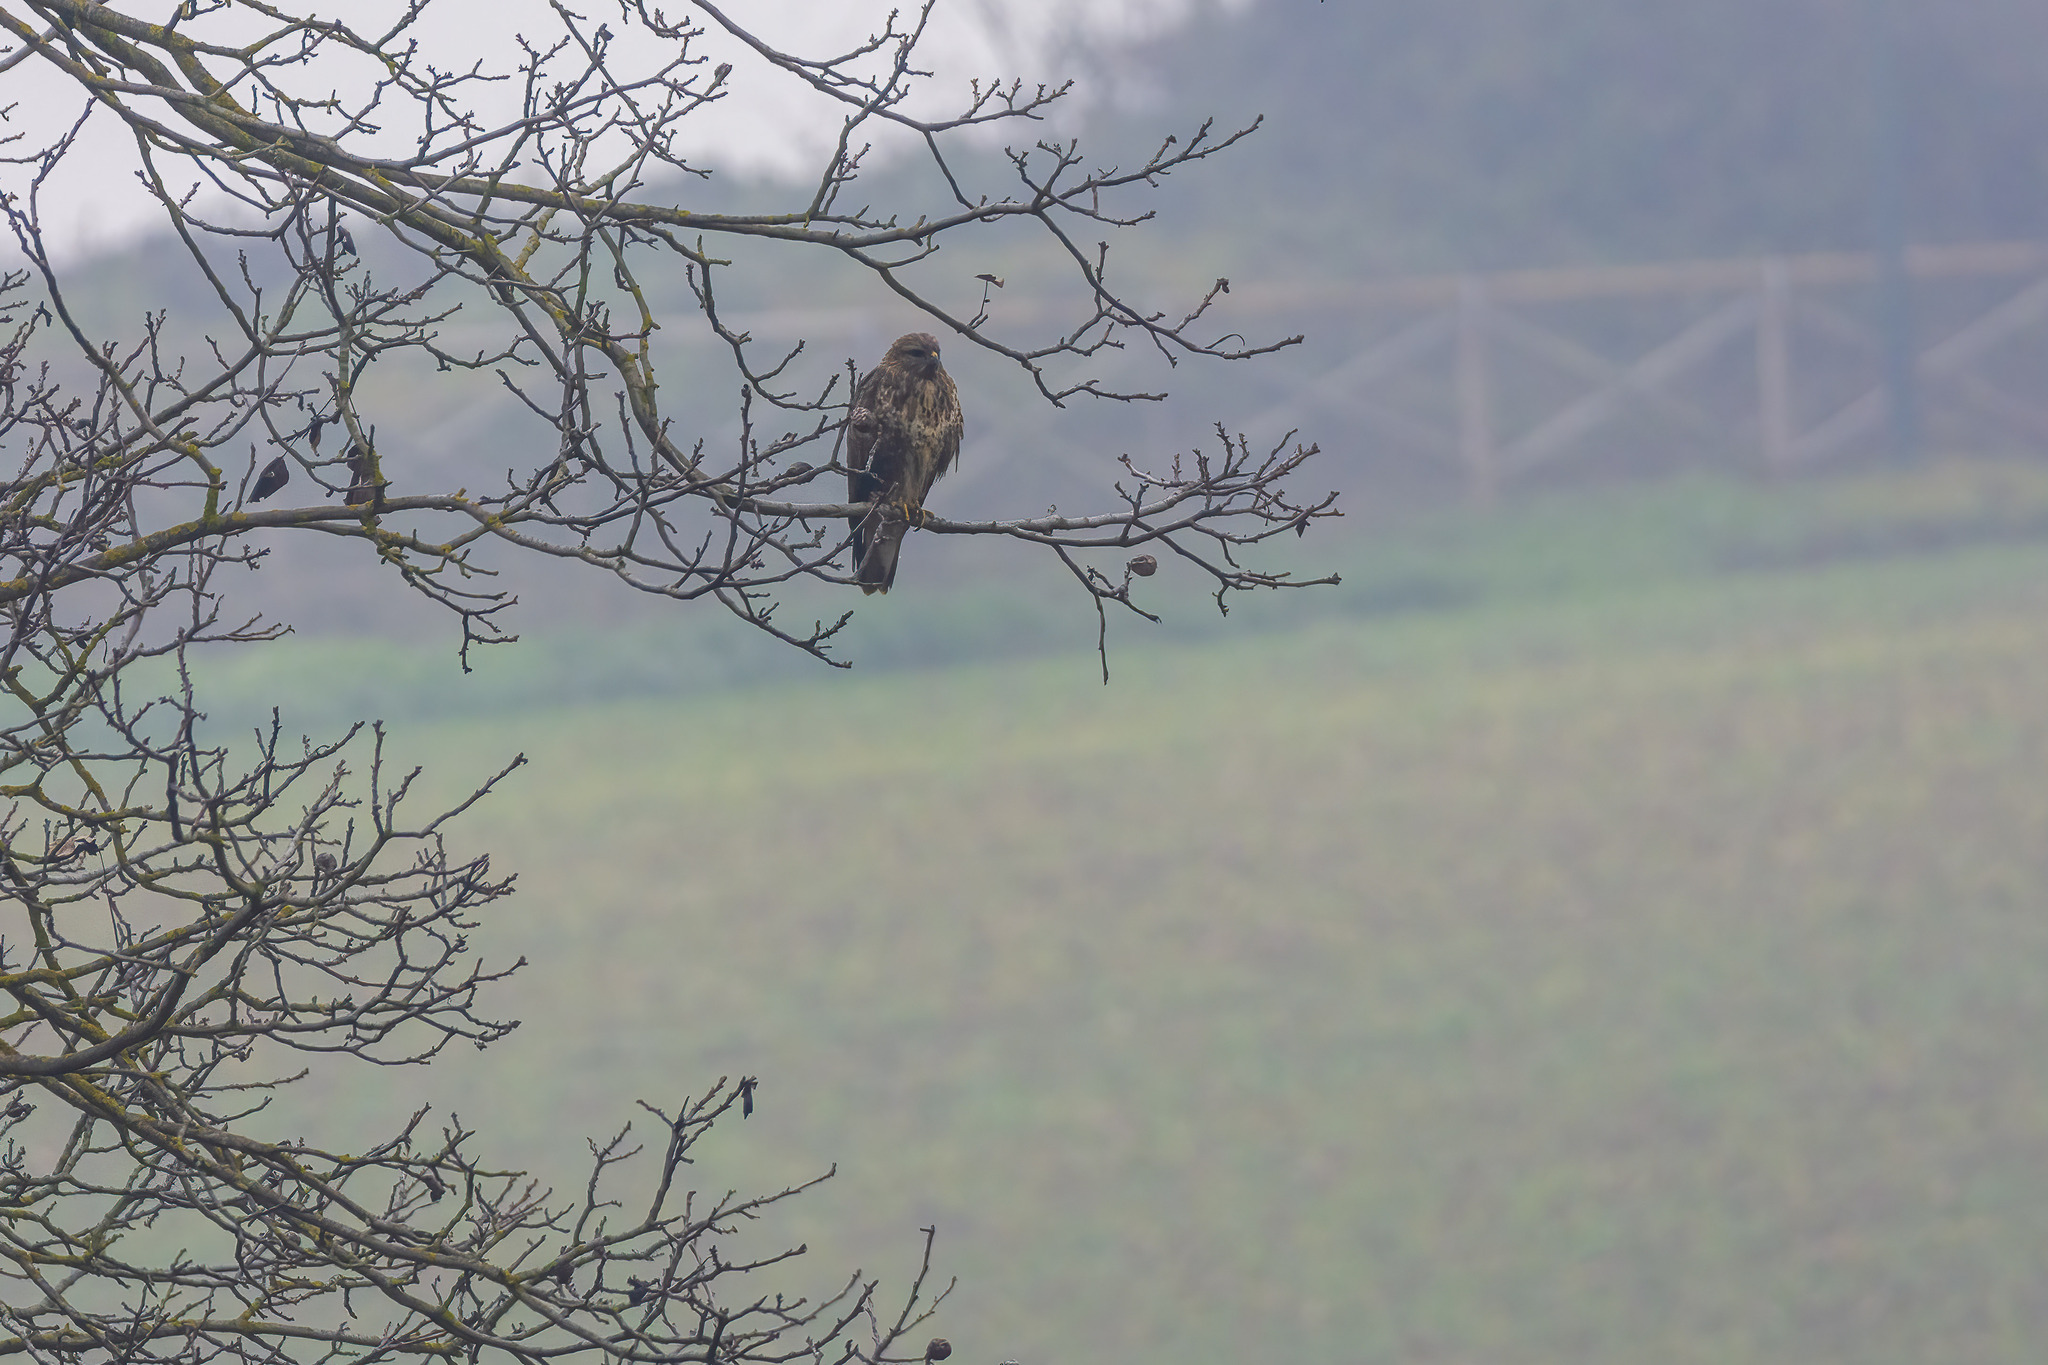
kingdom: Animalia
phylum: Chordata
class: Aves
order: Accipitriformes
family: Accipitridae
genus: Buteo
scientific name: Buteo buteo
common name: Common buzzard
